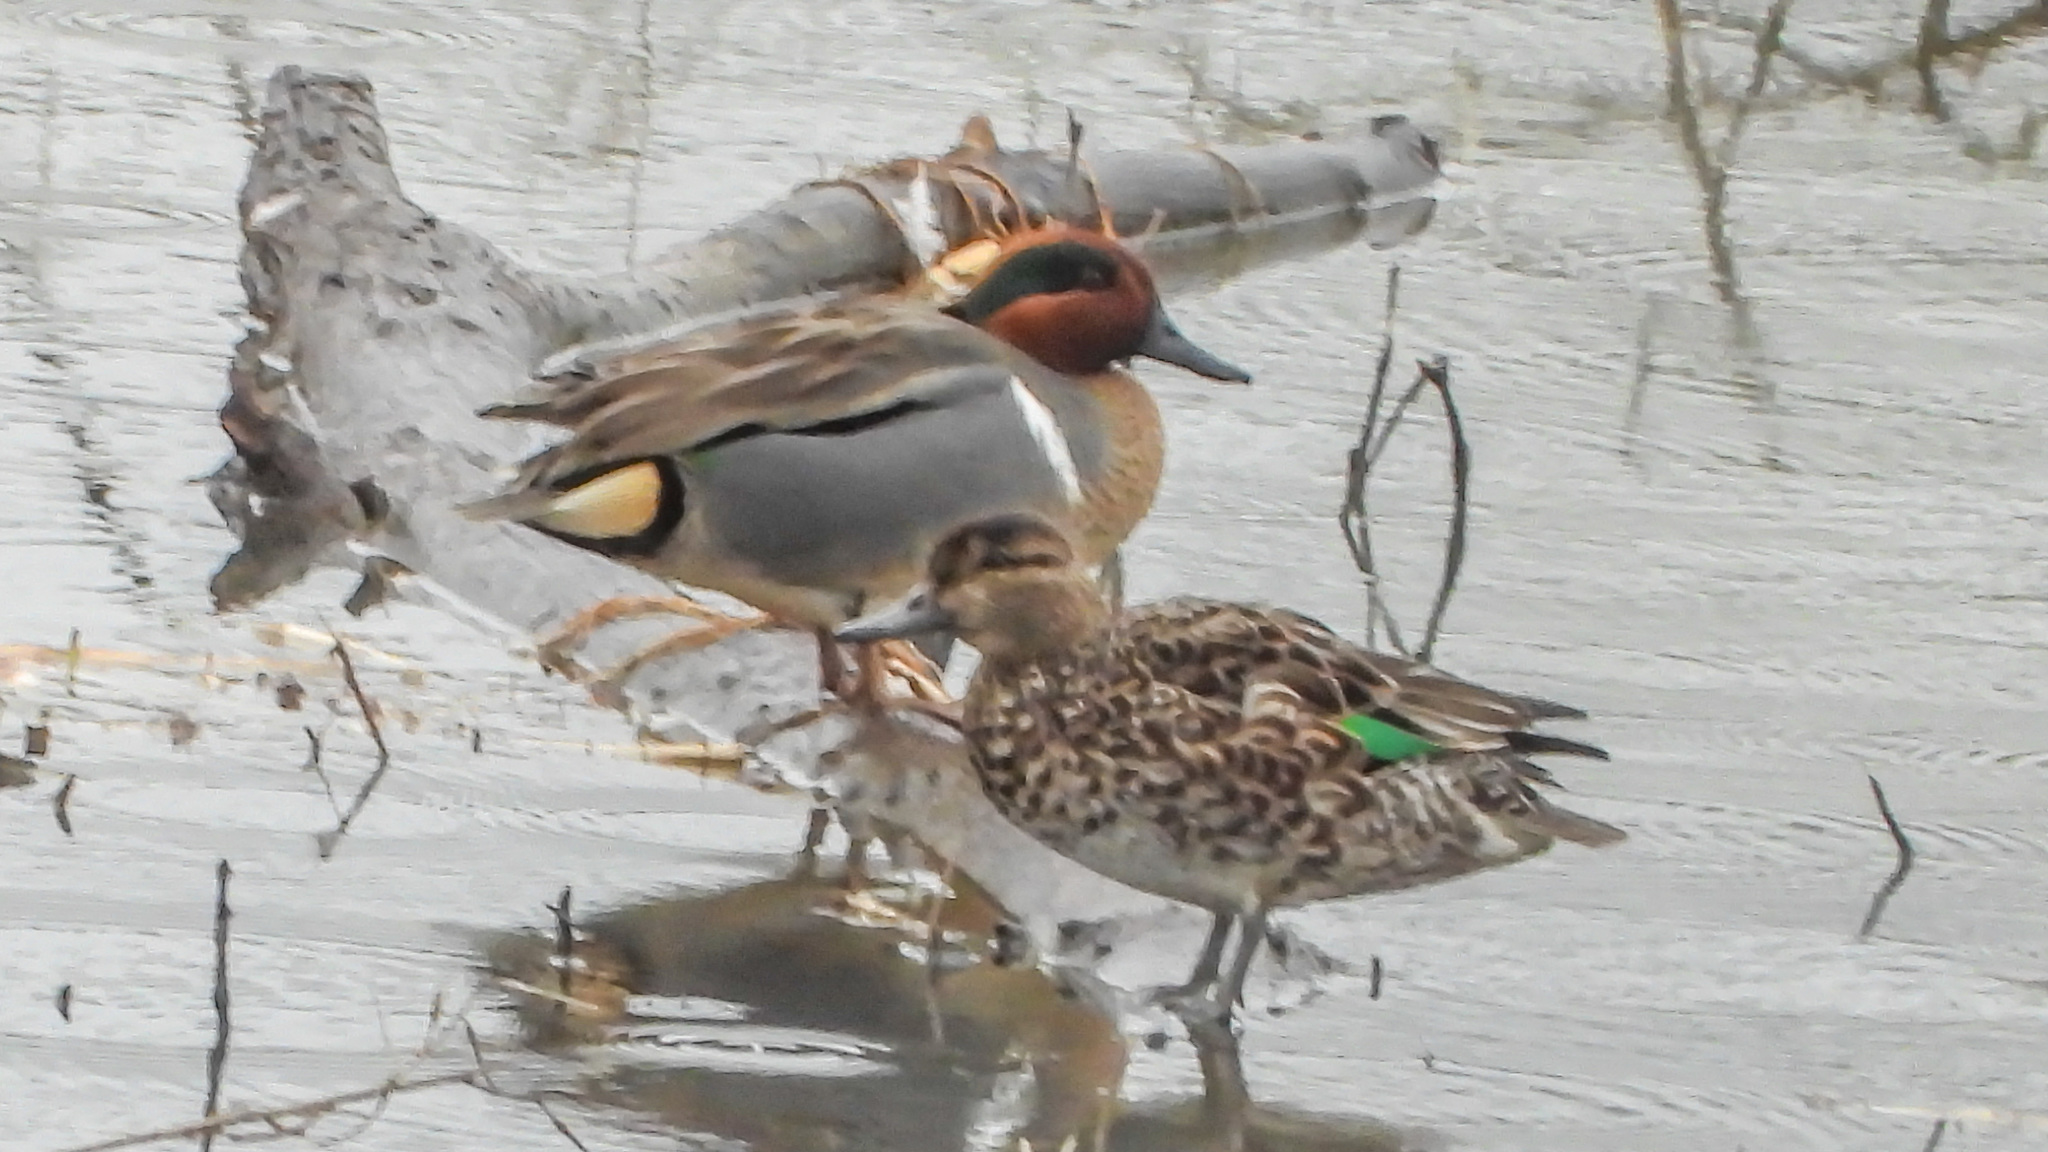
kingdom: Animalia
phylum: Chordata
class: Aves
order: Anseriformes
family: Anatidae
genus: Anas
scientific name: Anas crecca
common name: Eurasian teal
